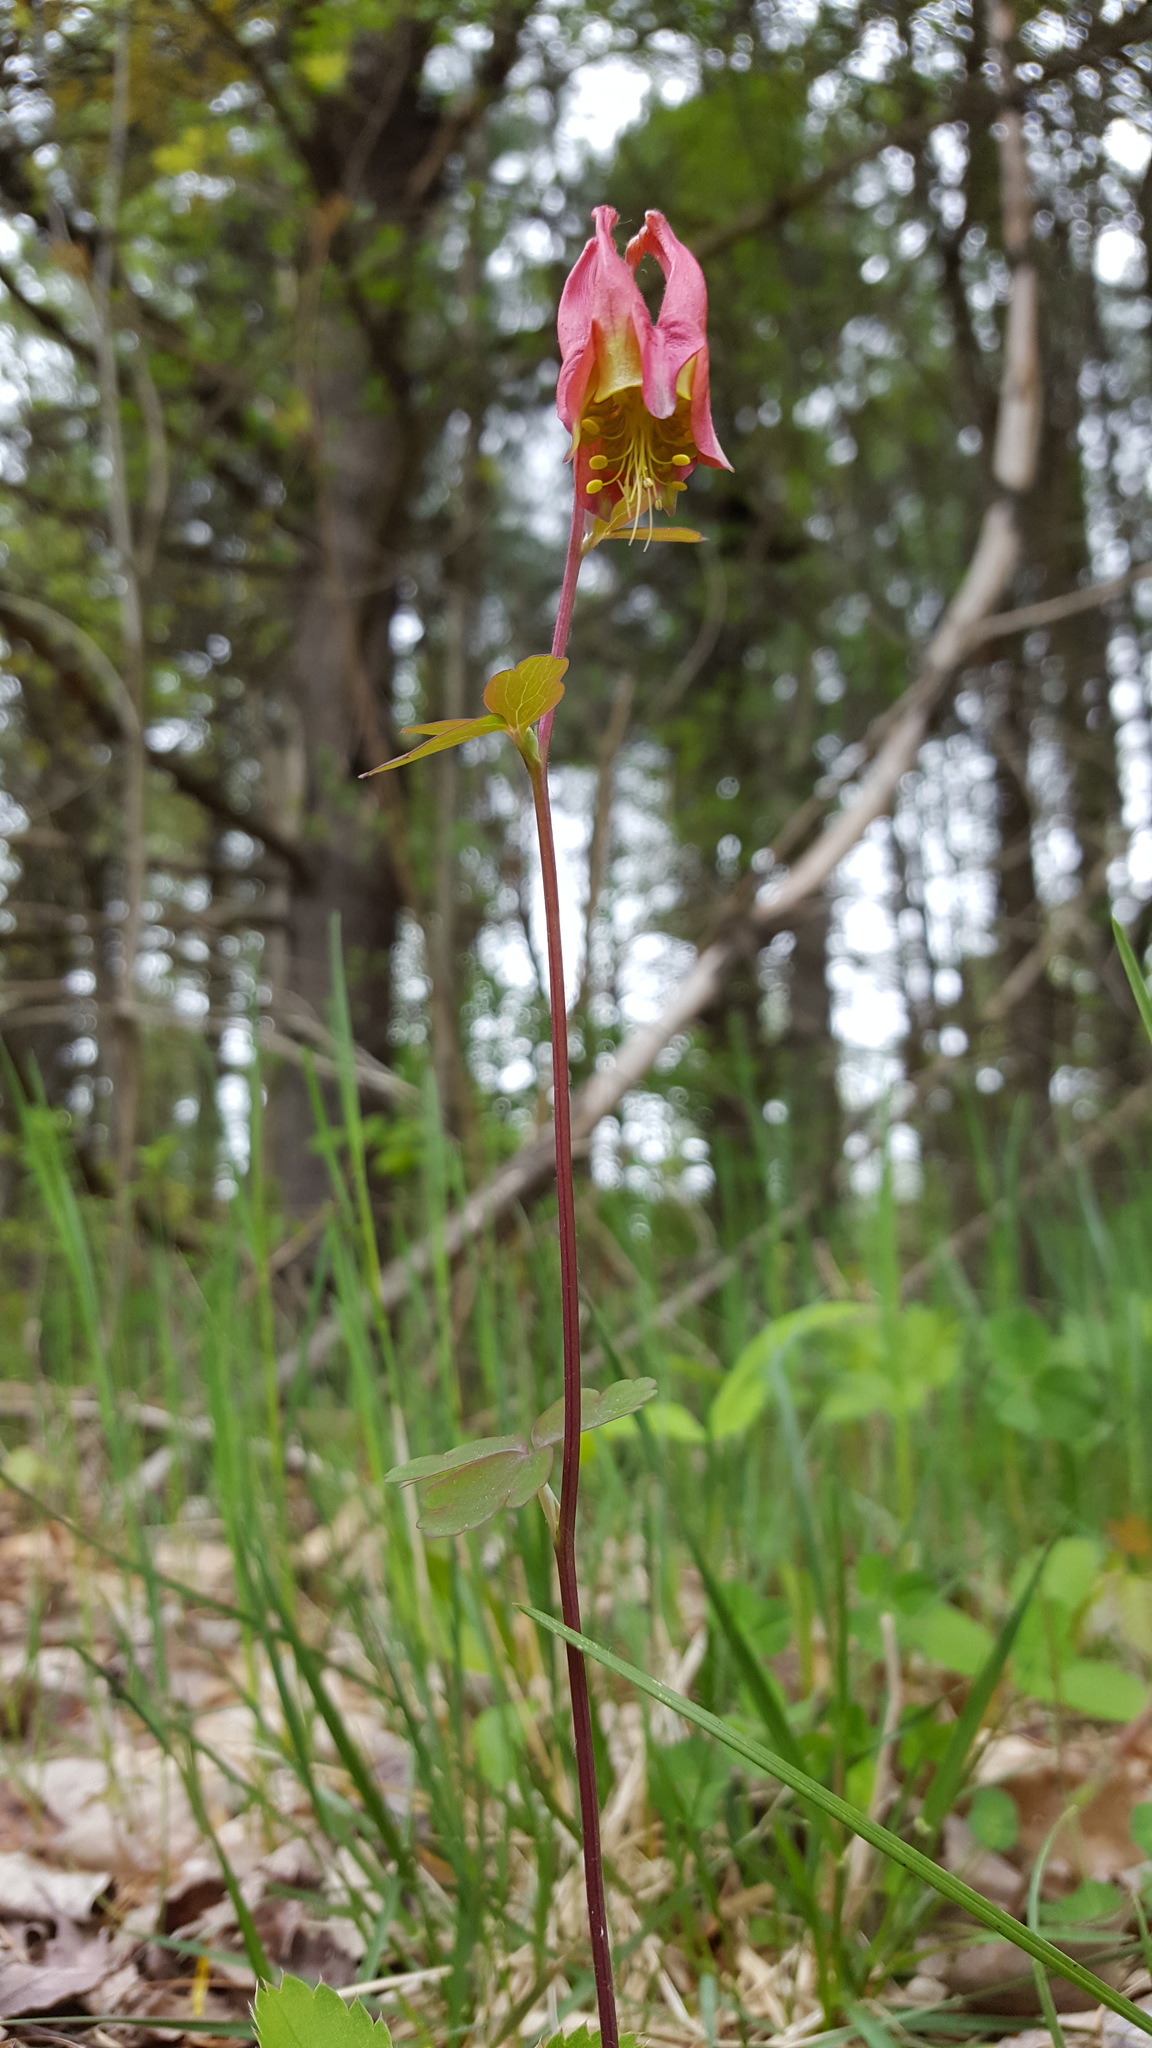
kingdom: Plantae
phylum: Tracheophyta
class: Magnoliopsida
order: Ranunculales
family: Ranunculaceae
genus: Aquilegia
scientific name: Aquilegia canadensis
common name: American columbine
